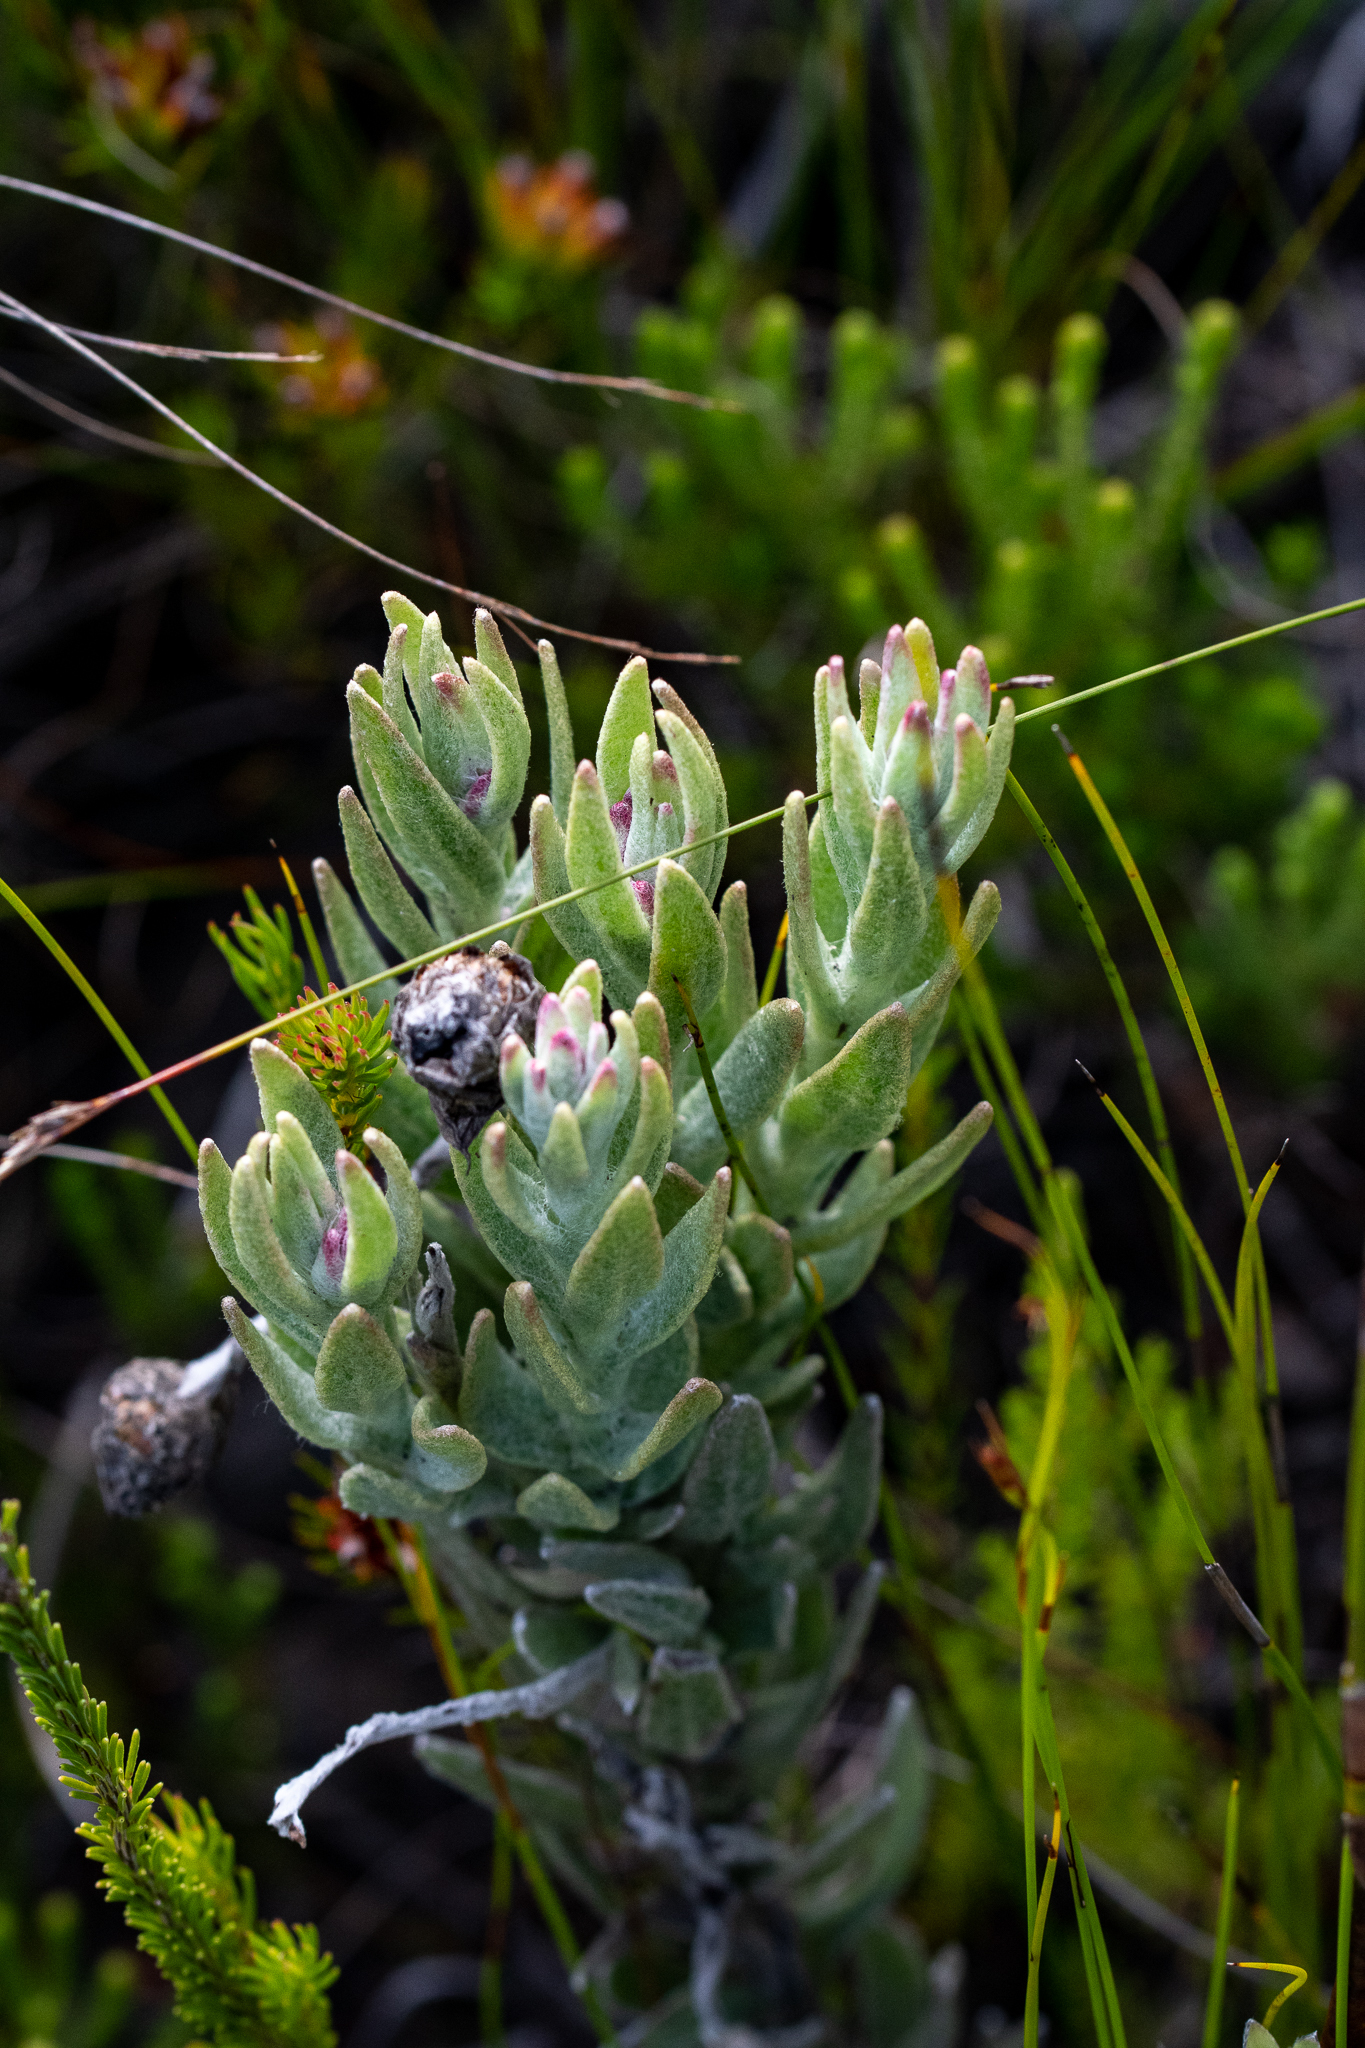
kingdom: Plantae
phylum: Tracheophyta
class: Magnoliopsida
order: Asterales
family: Asteraceae
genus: Syncarpha
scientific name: Syncarpha zeyheri
